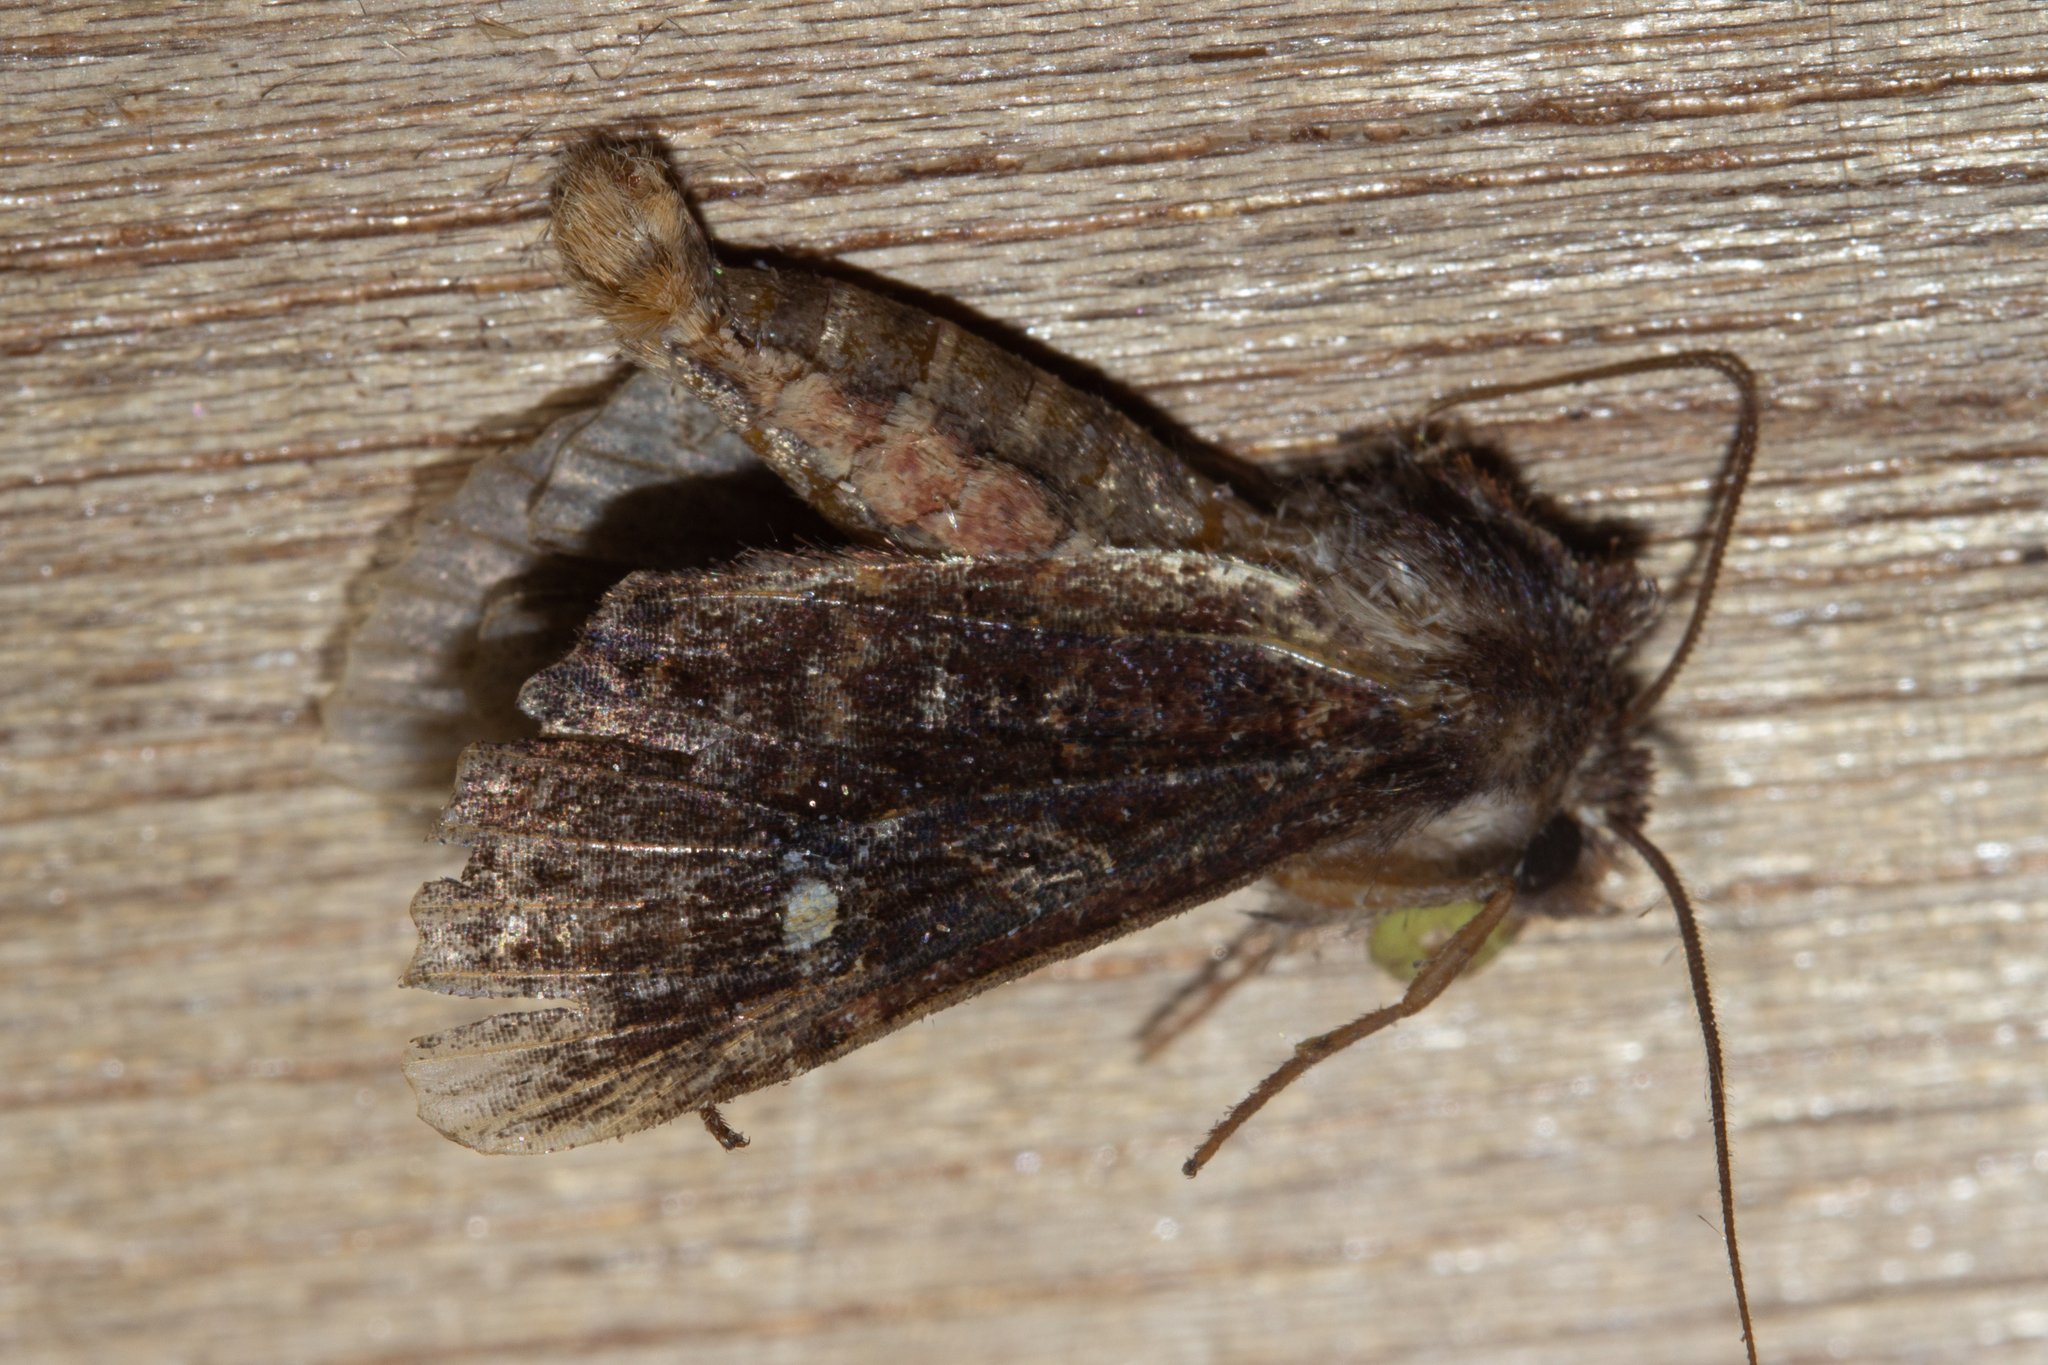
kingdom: Animalia
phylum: Arthropoda
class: Insecta
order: Lepidoptera
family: Noctuidae
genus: Meterana
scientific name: Meterana vitiosa
